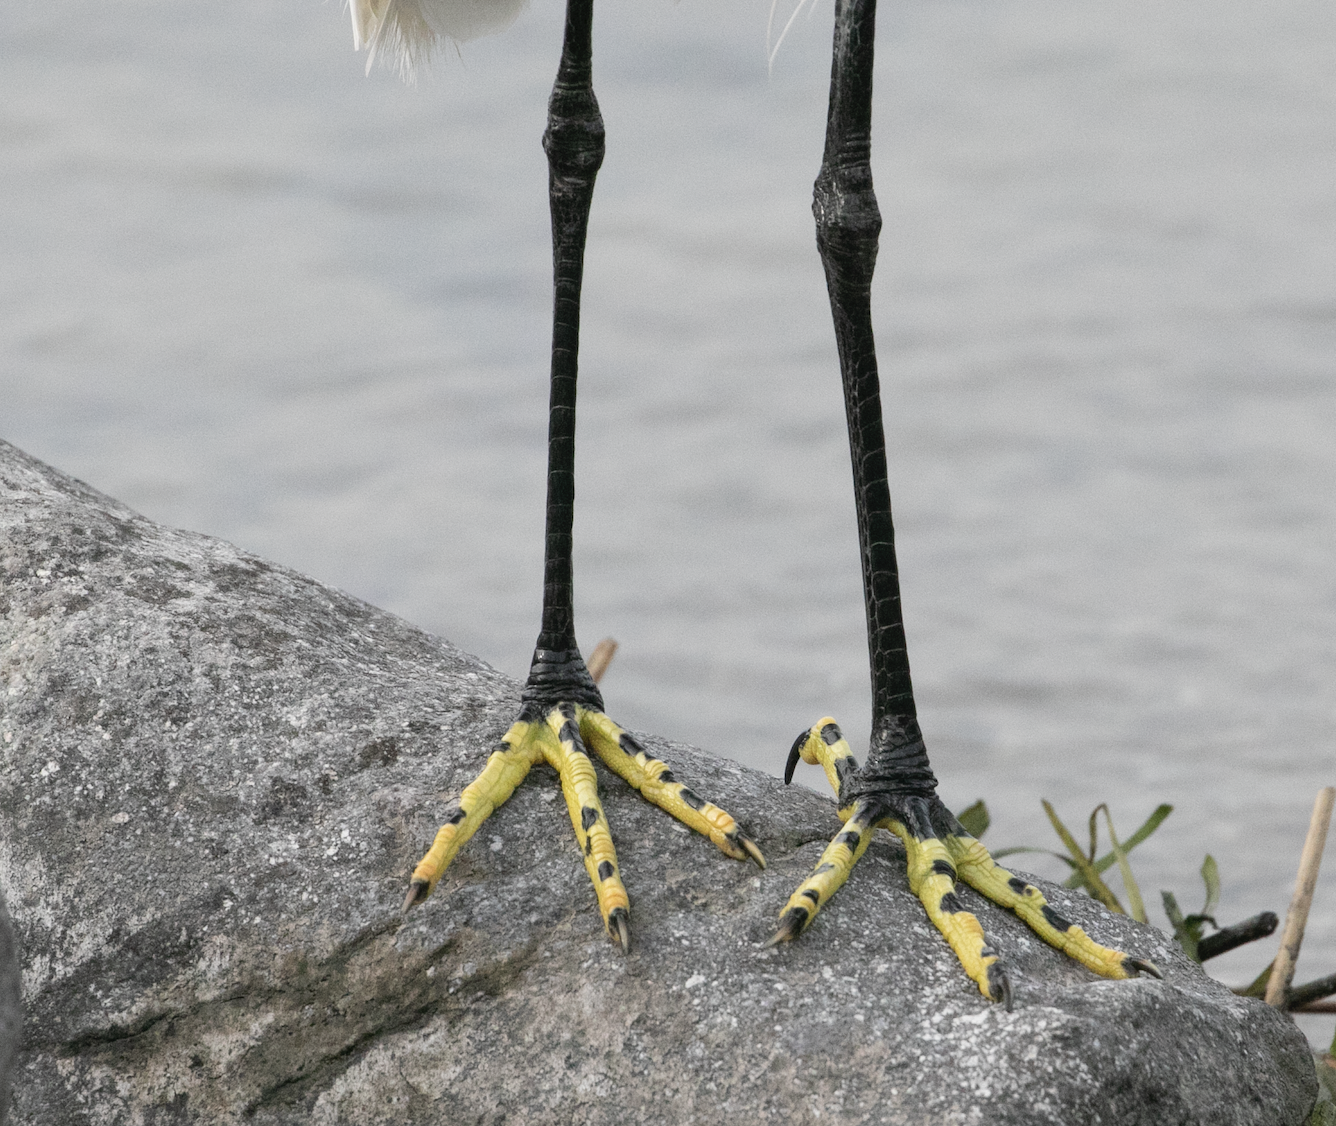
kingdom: Animalia
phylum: Chordata
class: Aves
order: Pelecaniformes
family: Ardeidae
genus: Egretta
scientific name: Egretta garzetta
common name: Little egret
